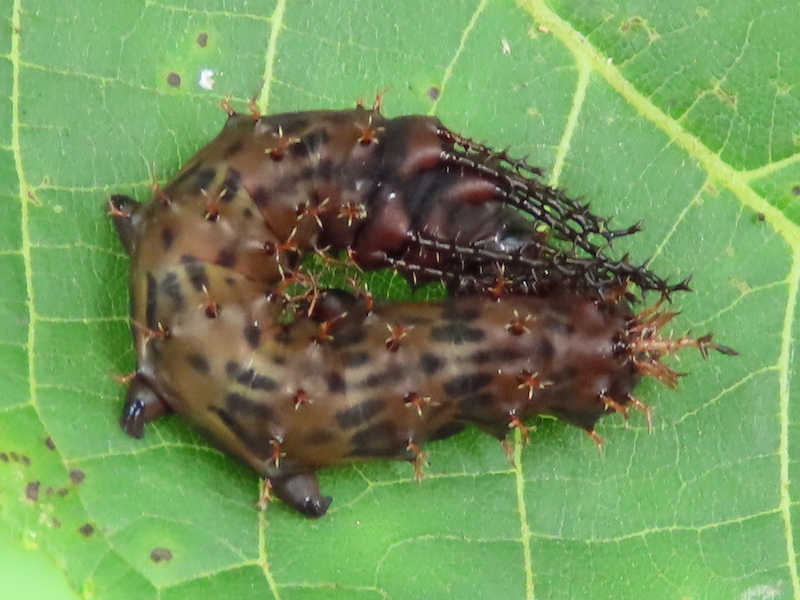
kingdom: Animalia
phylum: Arthropoda
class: Insecta
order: Lepidoptera
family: Saturniidae
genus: Citheronia
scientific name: Citheronia regalis
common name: Hickory horned devil
